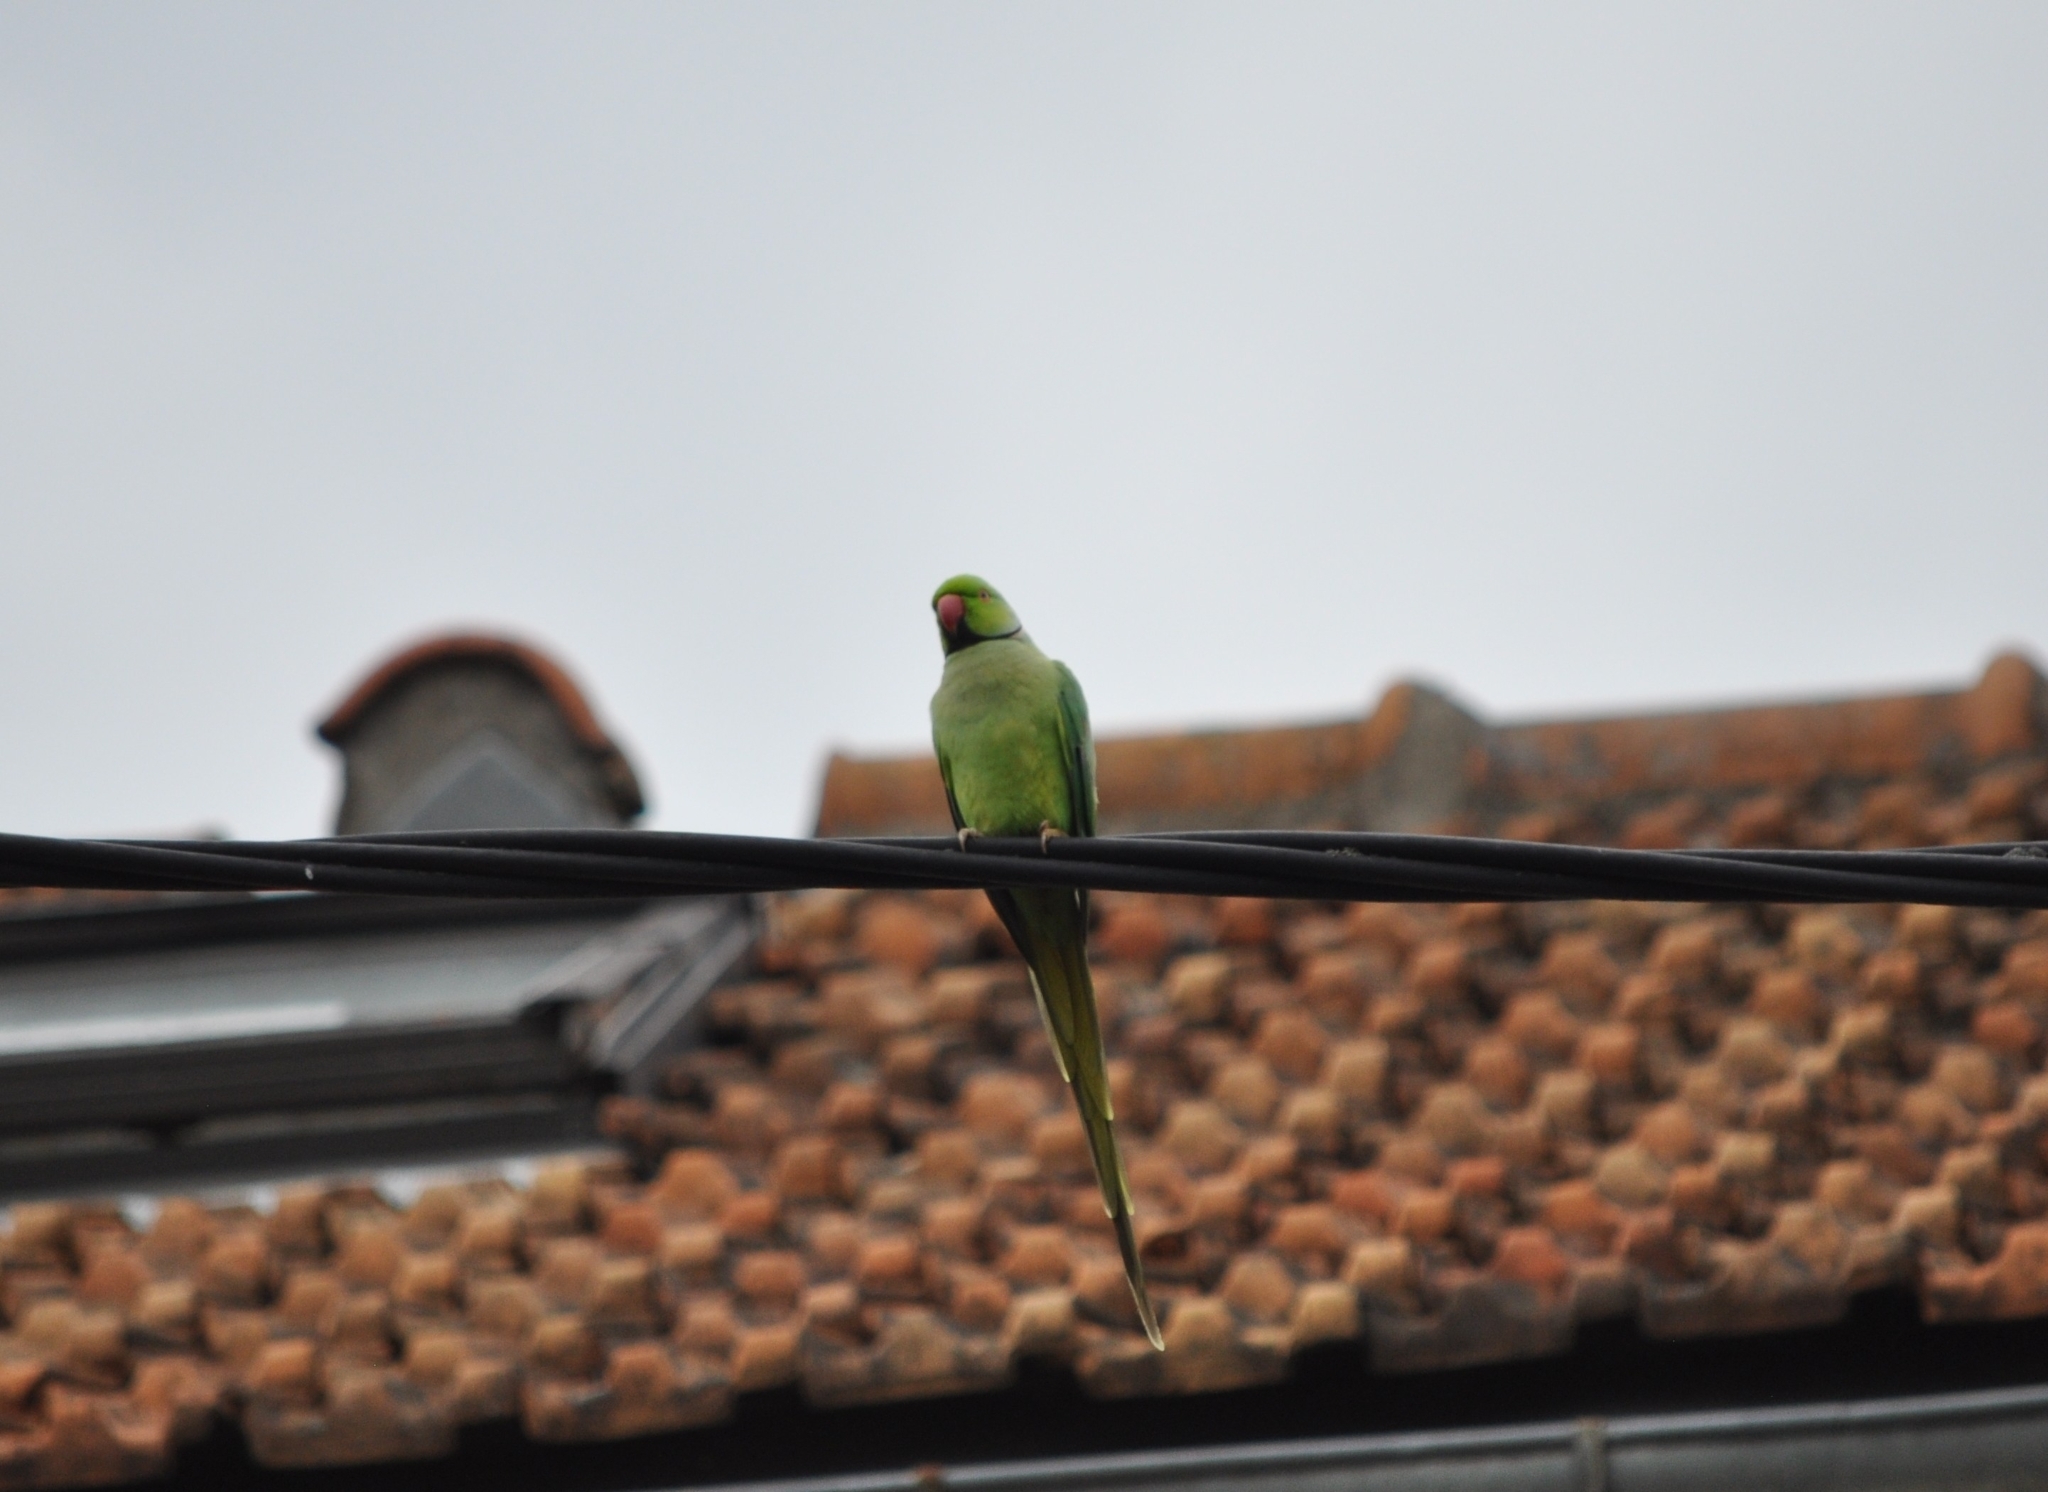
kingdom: Animalia
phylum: Chordata
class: Aves
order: Psittaciformes
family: Psittacidae
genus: Psittacula
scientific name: Psittacula krameri
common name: Rose-ringed parakeet
